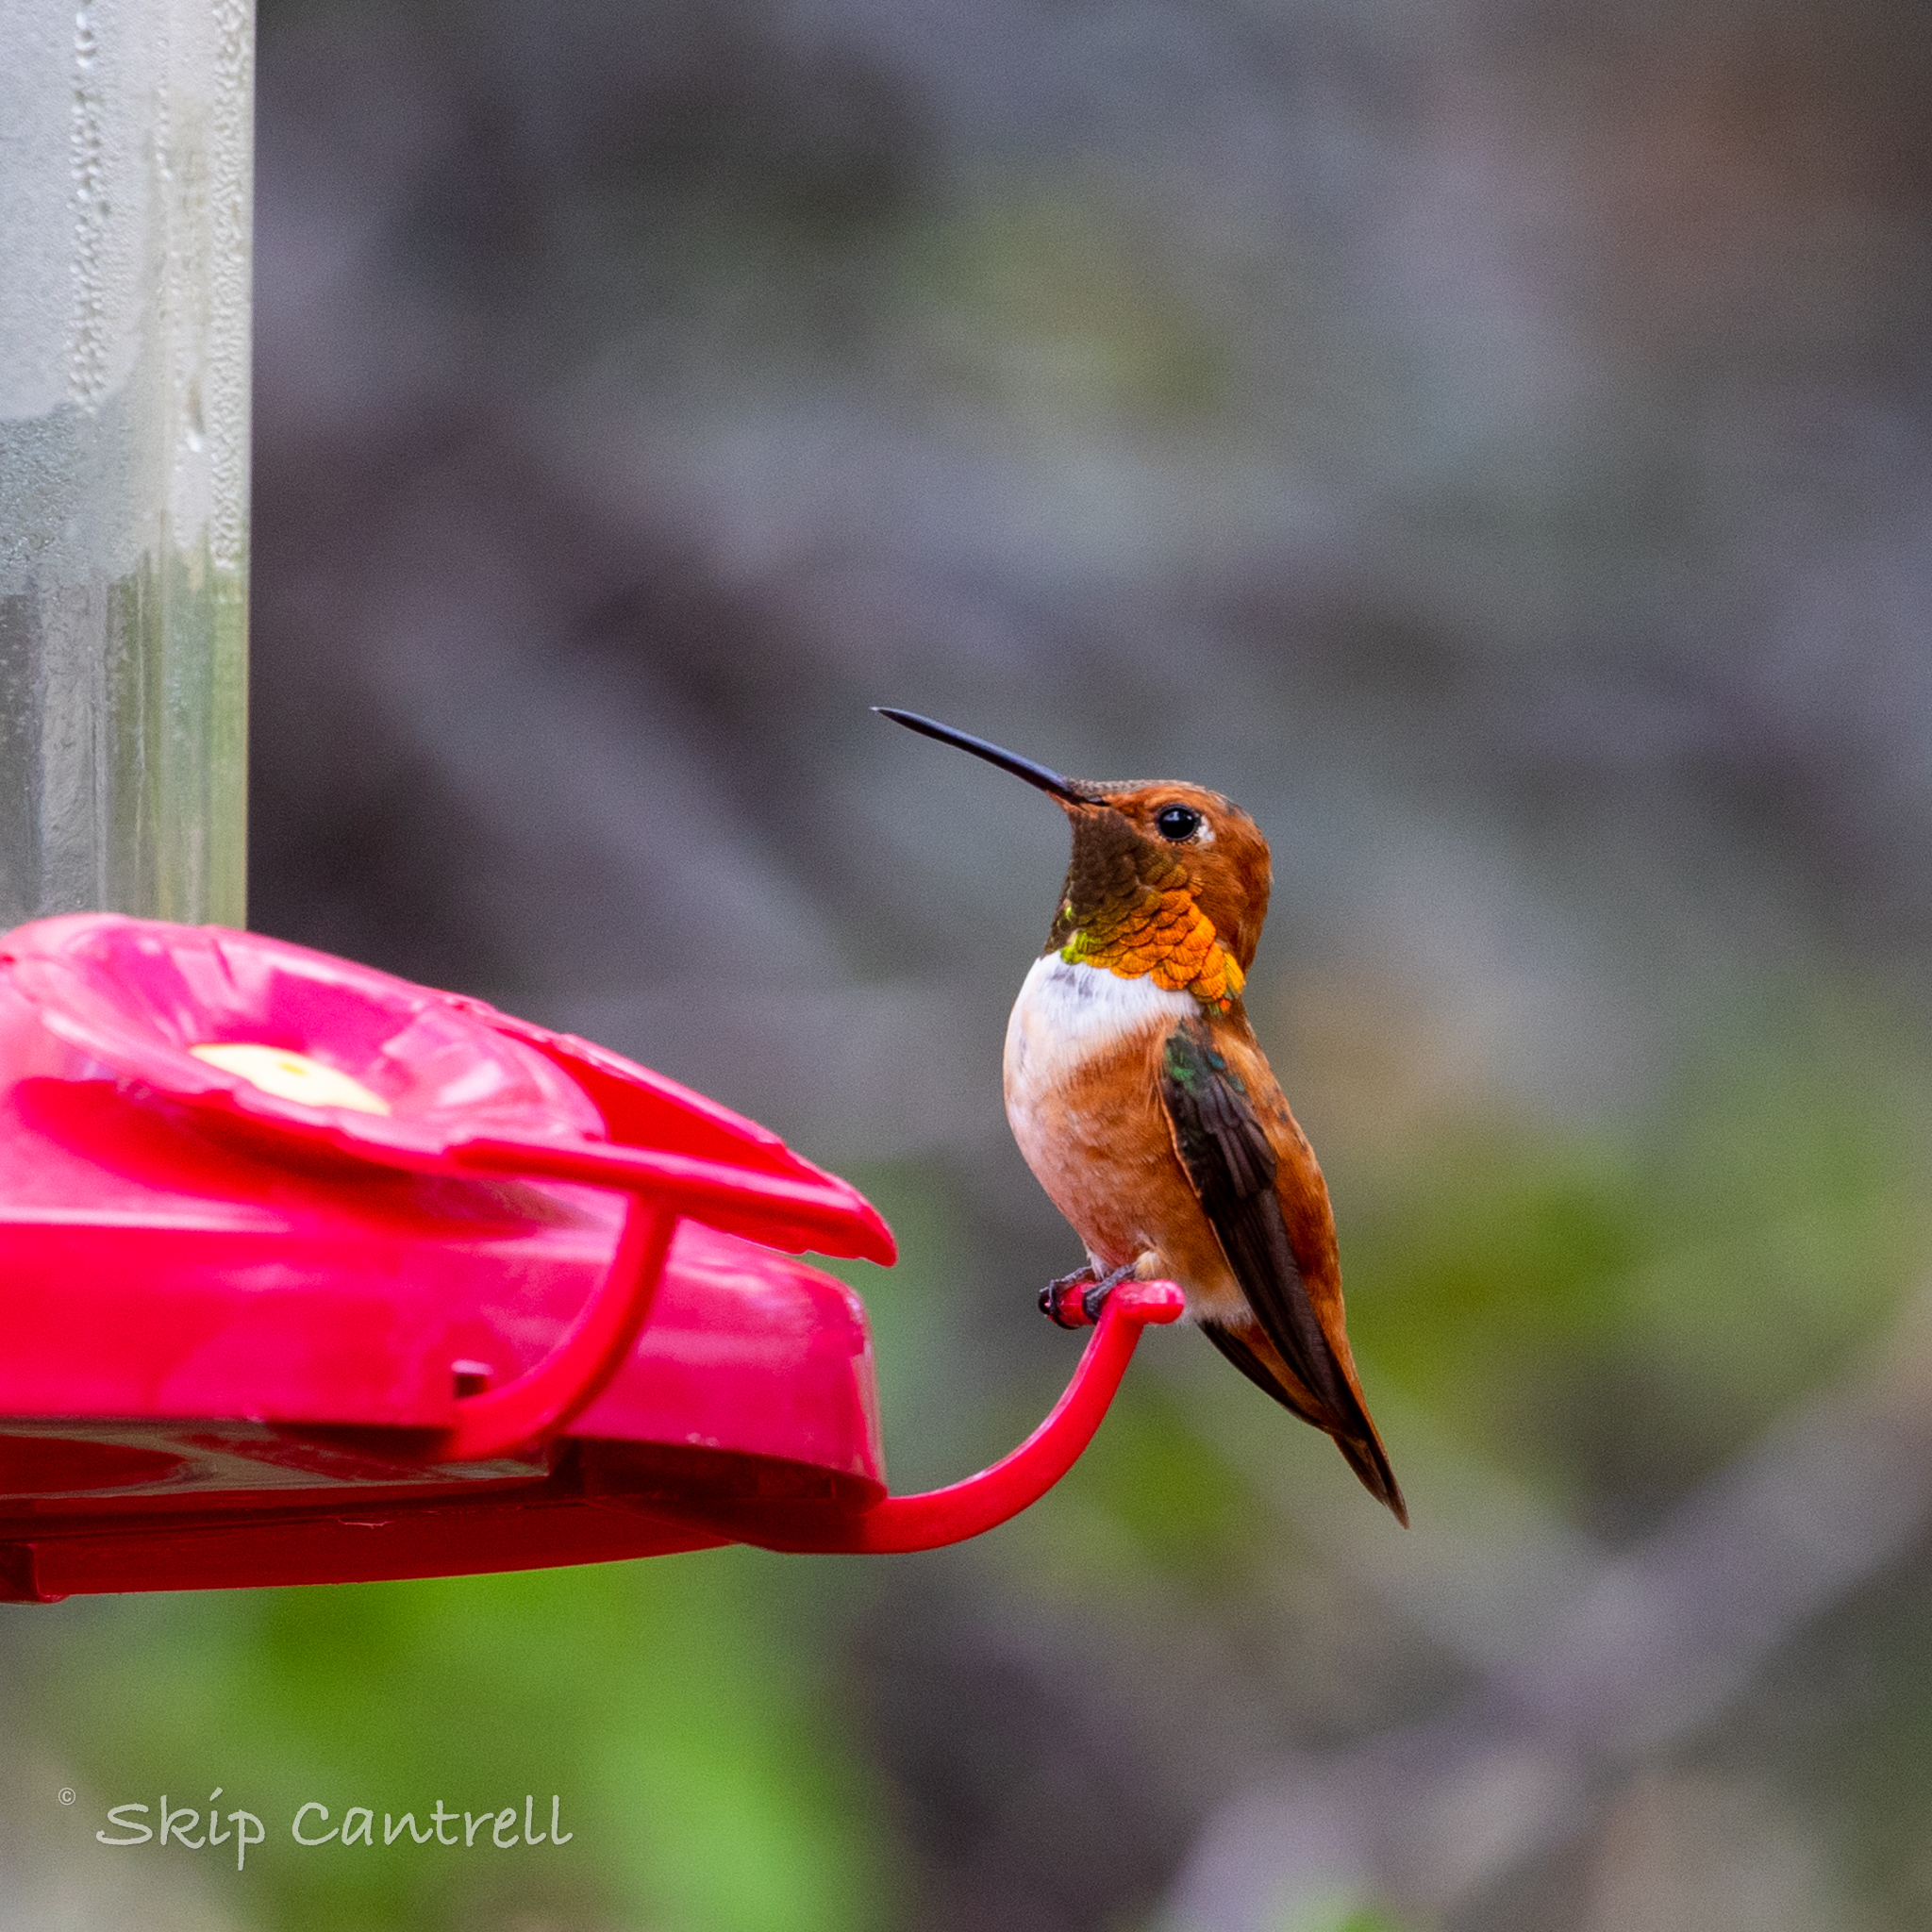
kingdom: Animalia
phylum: Chordata
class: Aves
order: Apodiformes
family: Trochilidae
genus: Selasphorus
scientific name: Selasphorus rufus
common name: Rufous hummingbird
